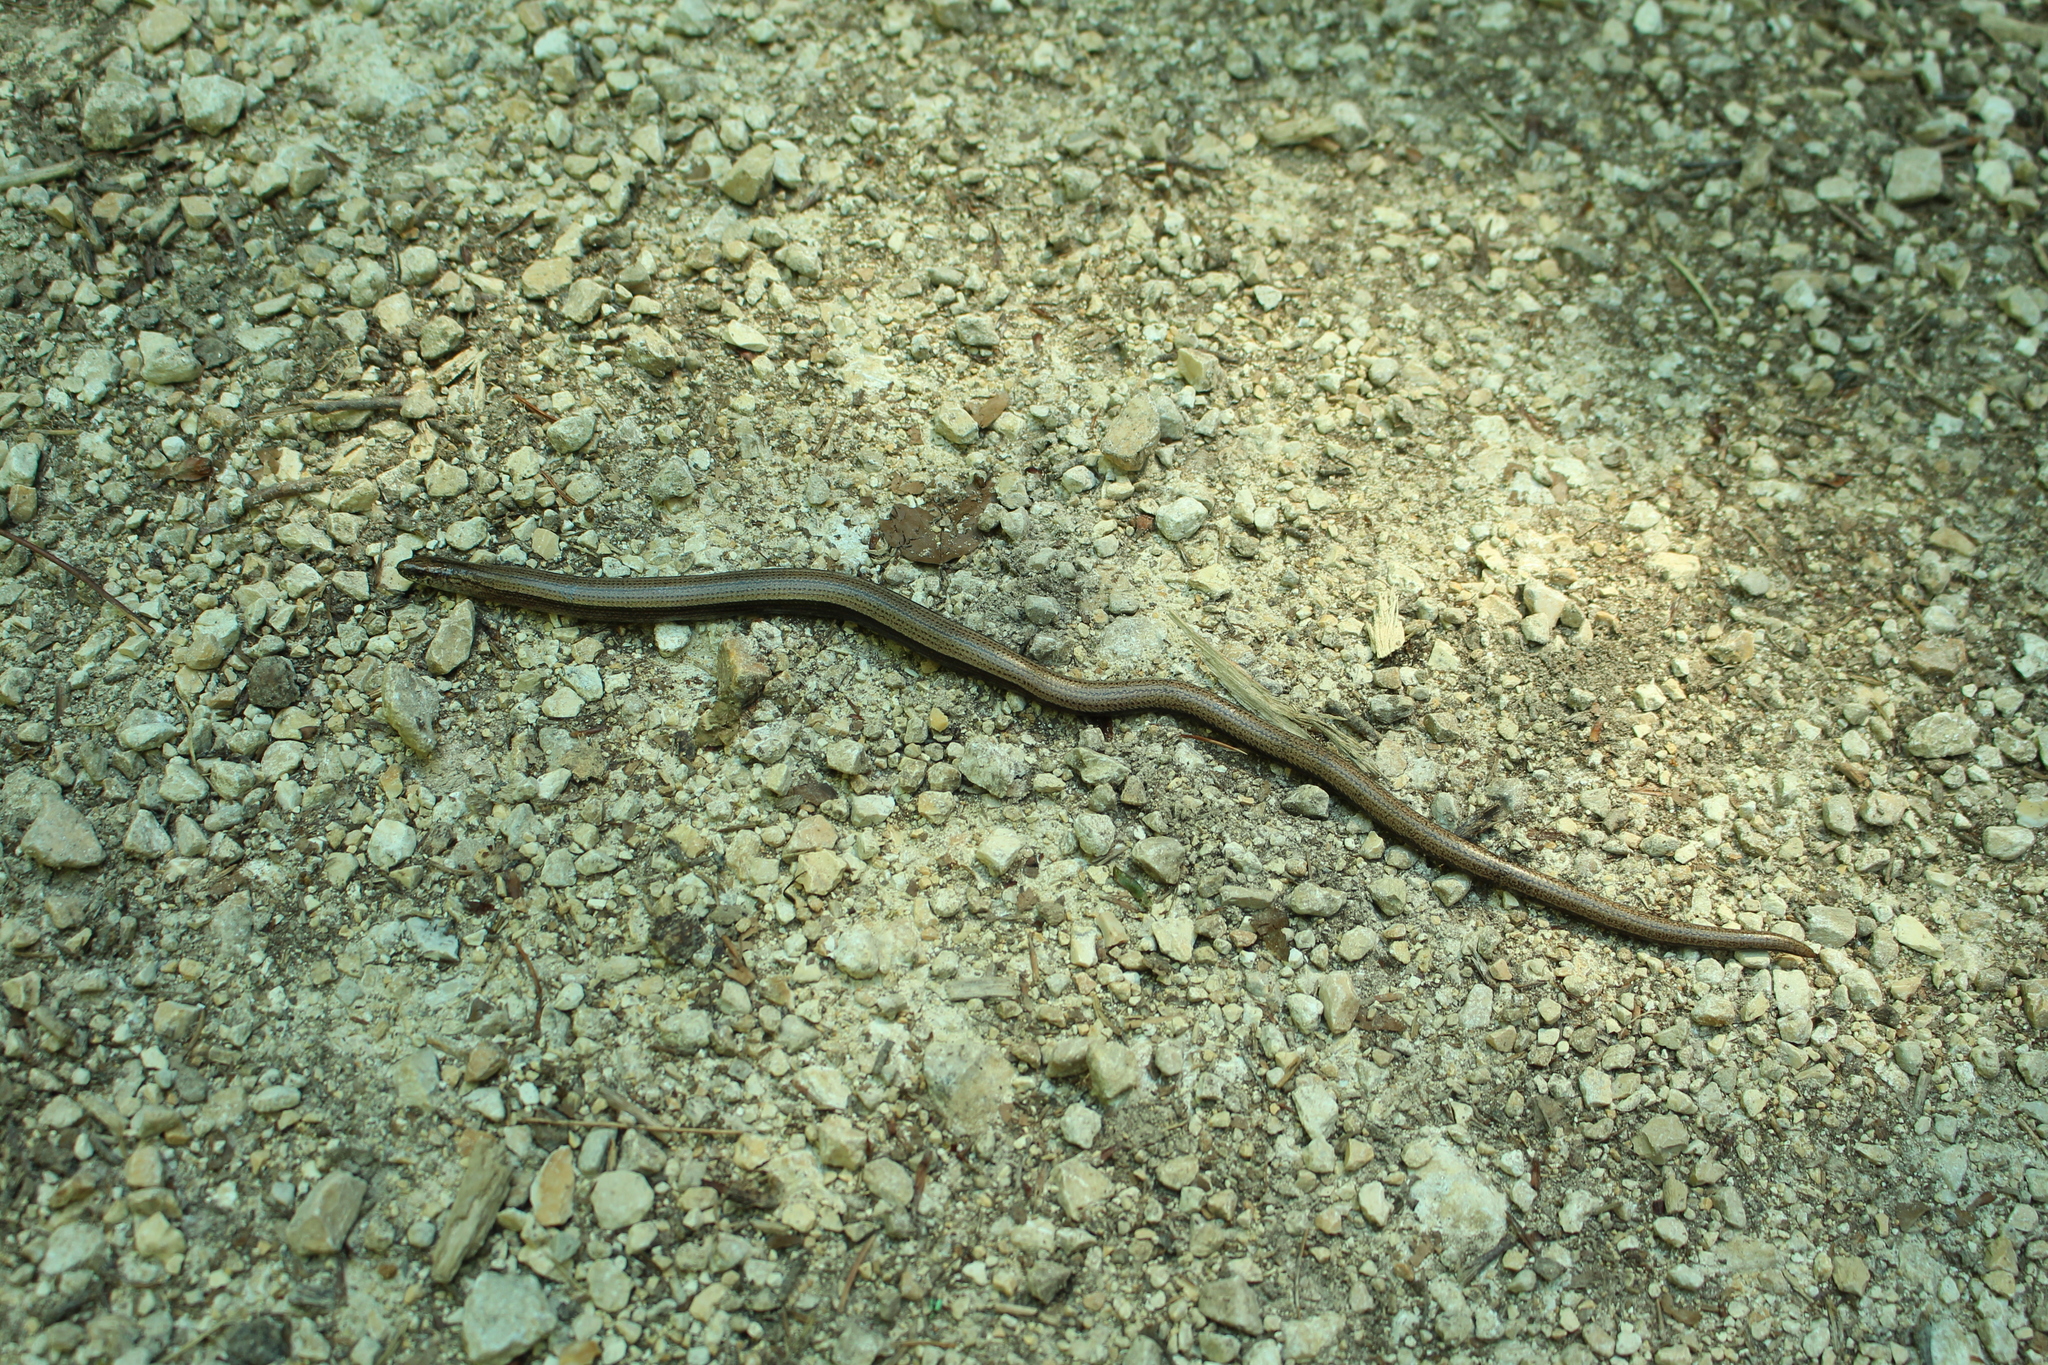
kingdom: Animalia
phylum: Chordata
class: Squamata
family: Anguidae
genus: Anguis
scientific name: Anguis fragilis
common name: Slow worm
